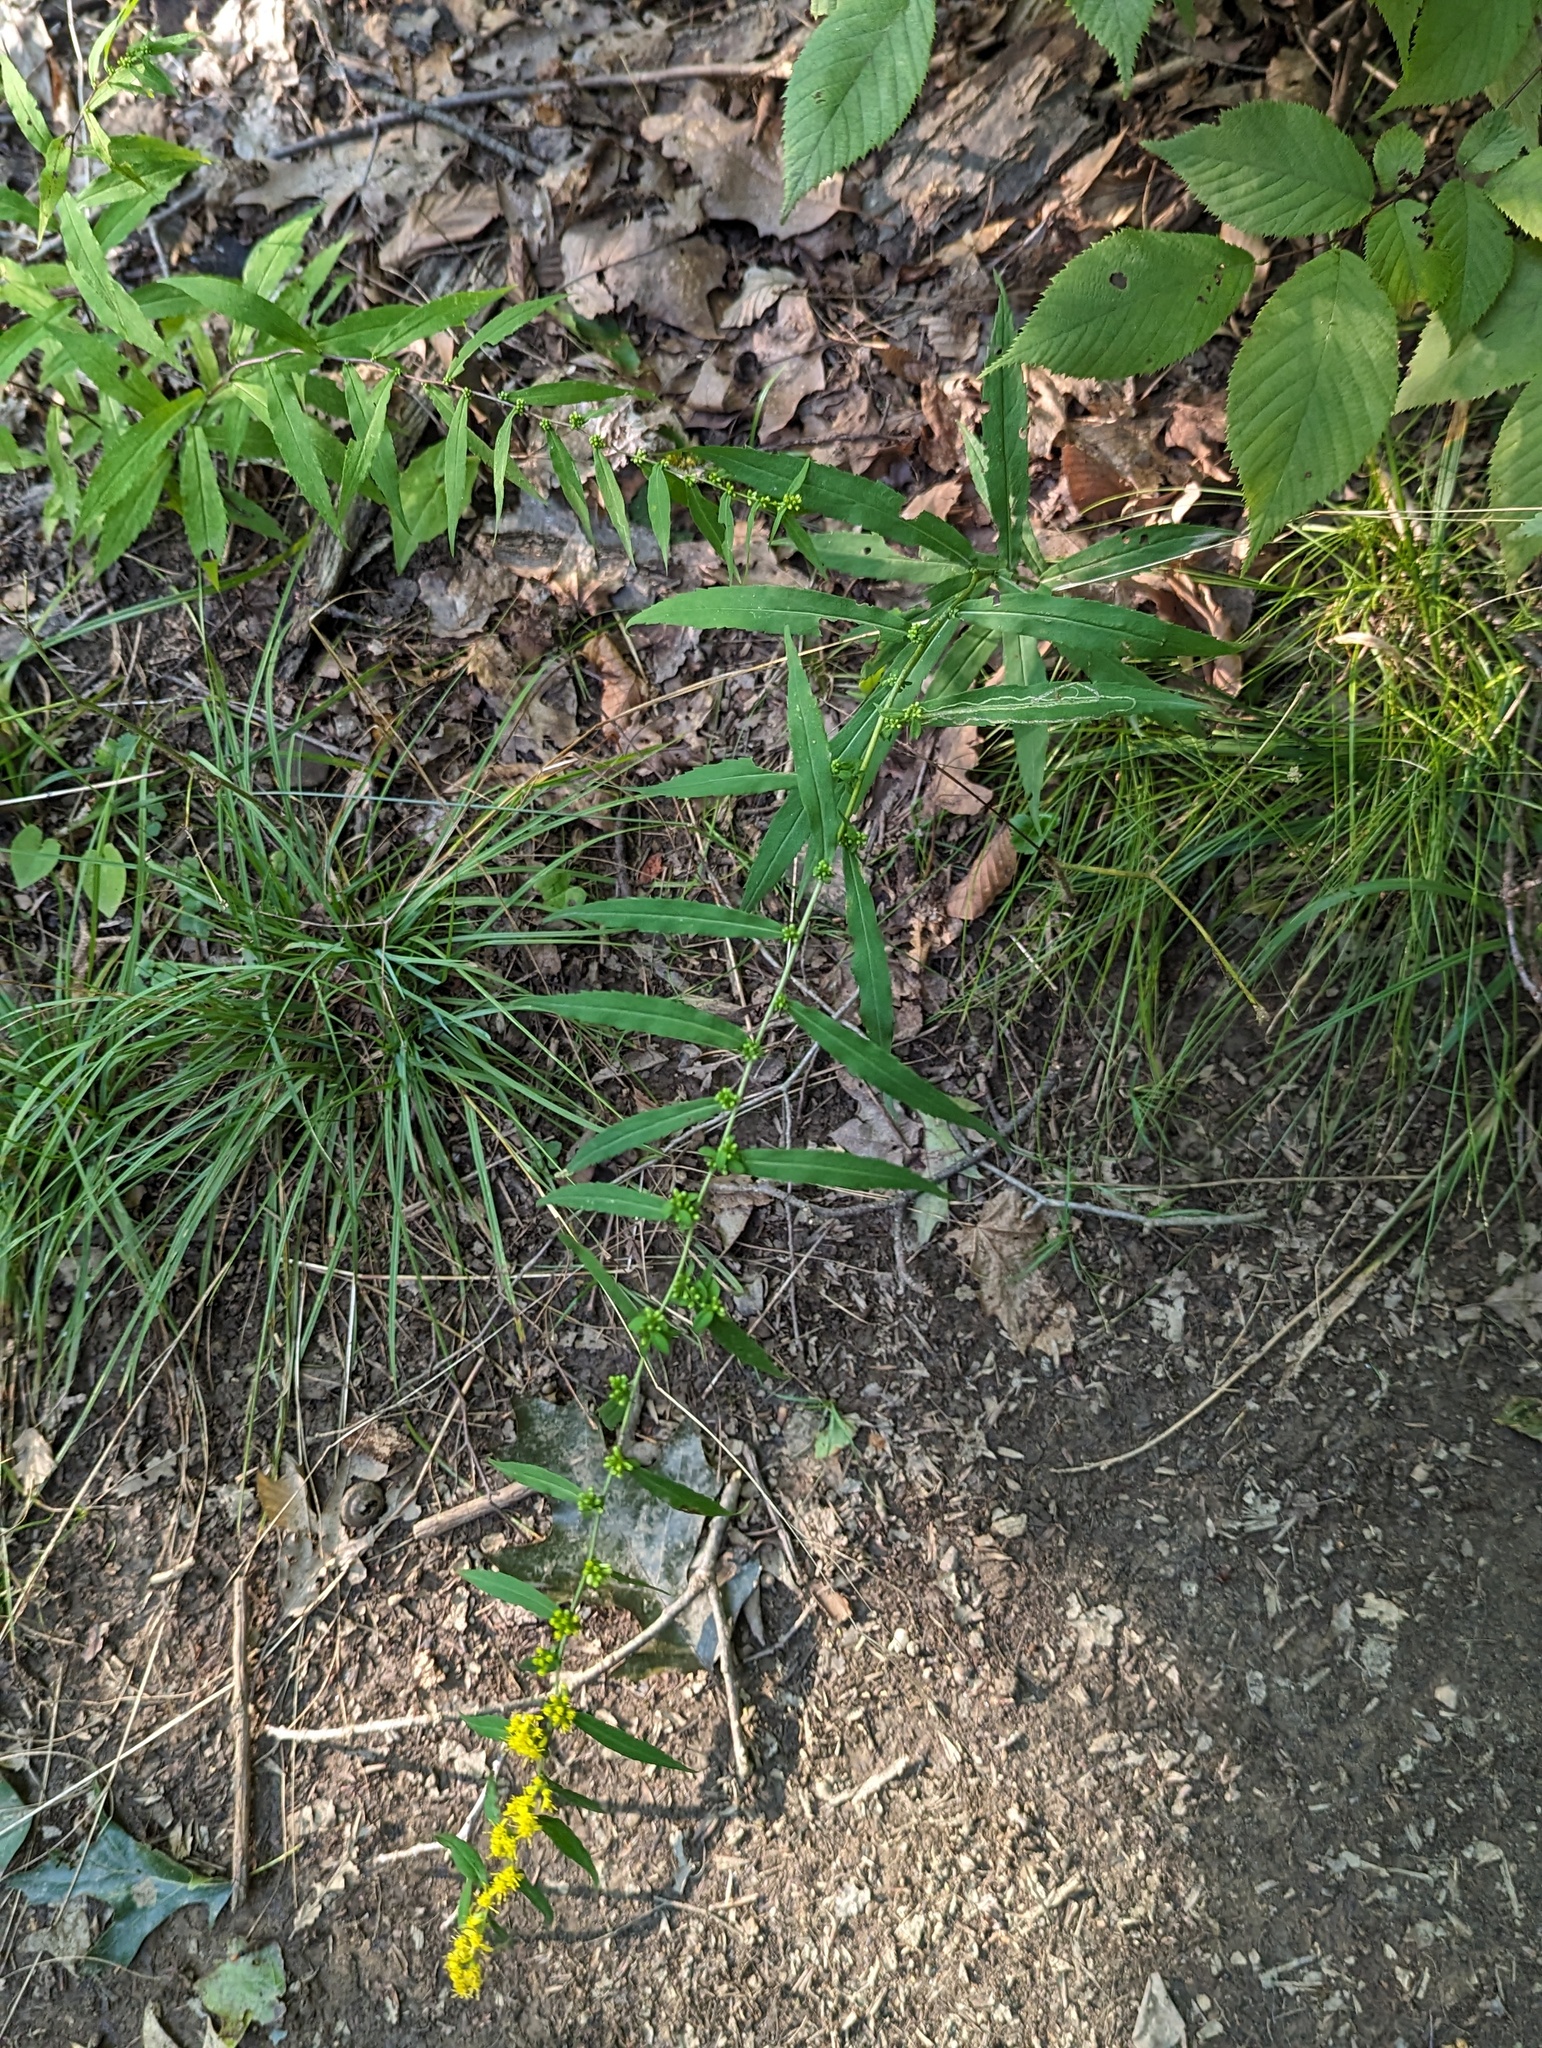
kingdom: Plantae
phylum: Tracheophyta
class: Magnoliopsida
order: Asterales
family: Asteraceae
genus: Solidago
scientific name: Solidago caesia
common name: Woodland goldenrod
